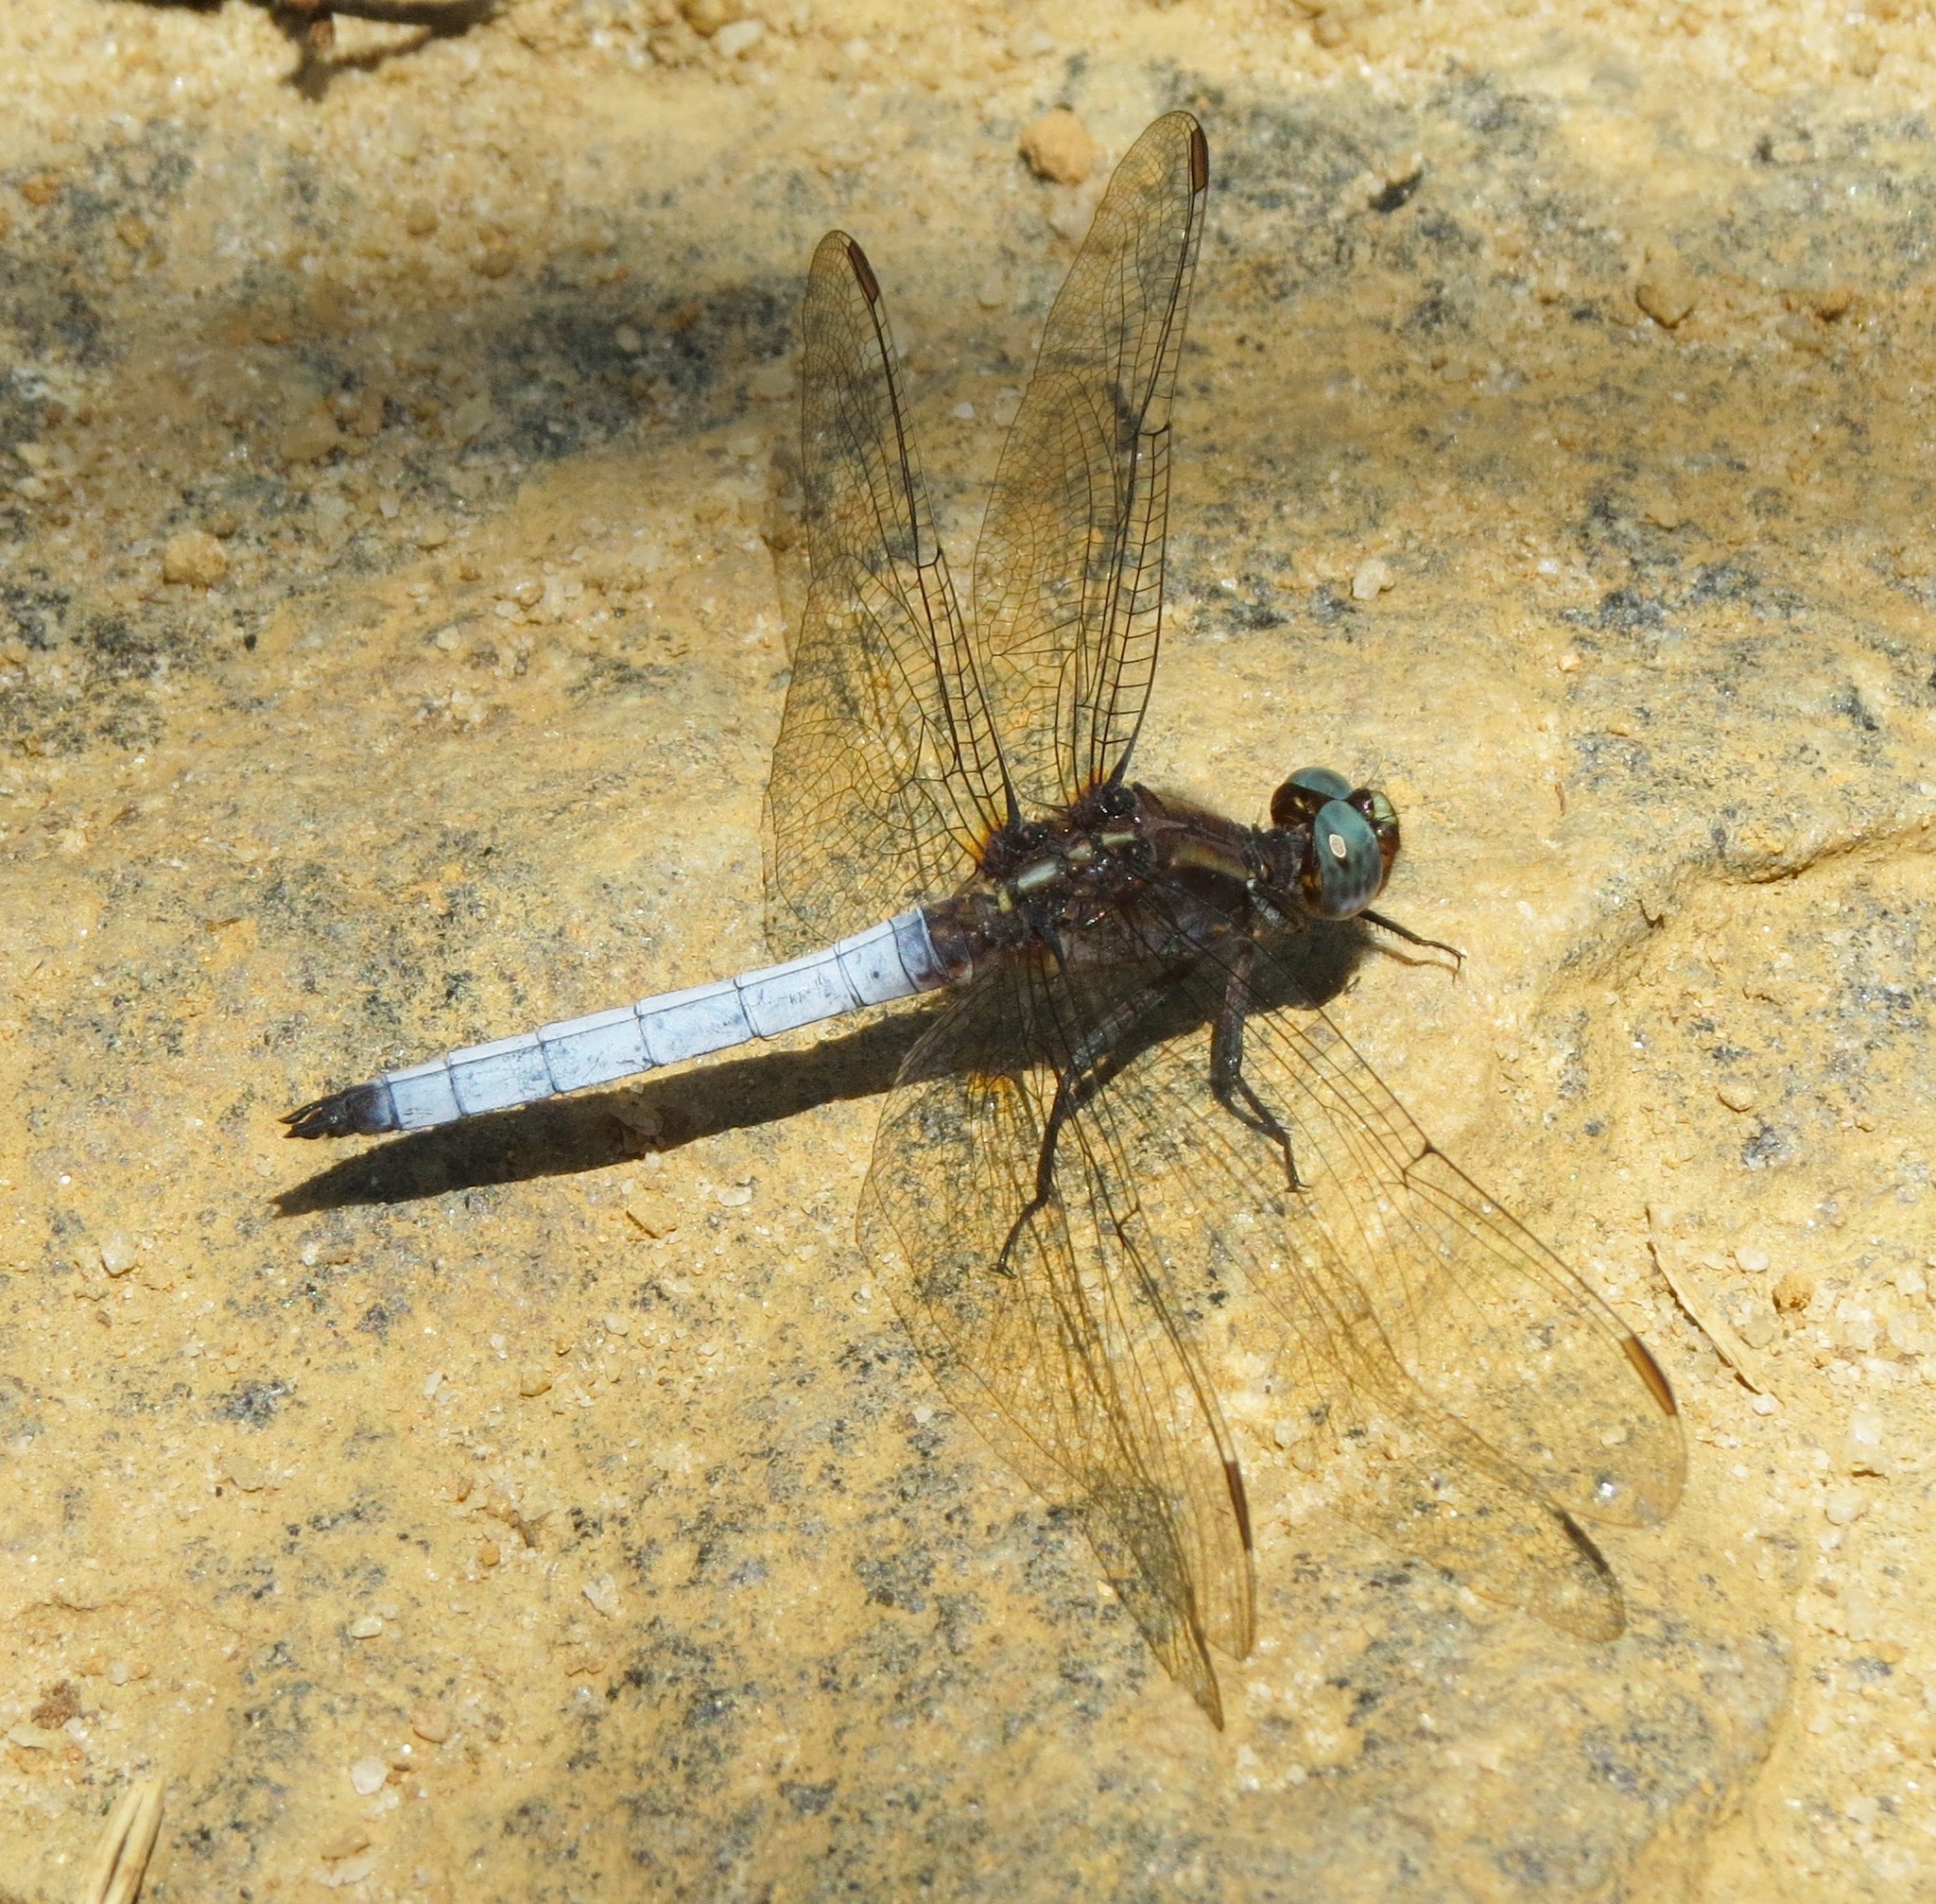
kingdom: Animalia
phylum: Arthropoda
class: Insecta
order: Odonata
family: Libellulidae
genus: Orthetrum
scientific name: Orthetrum azureum
